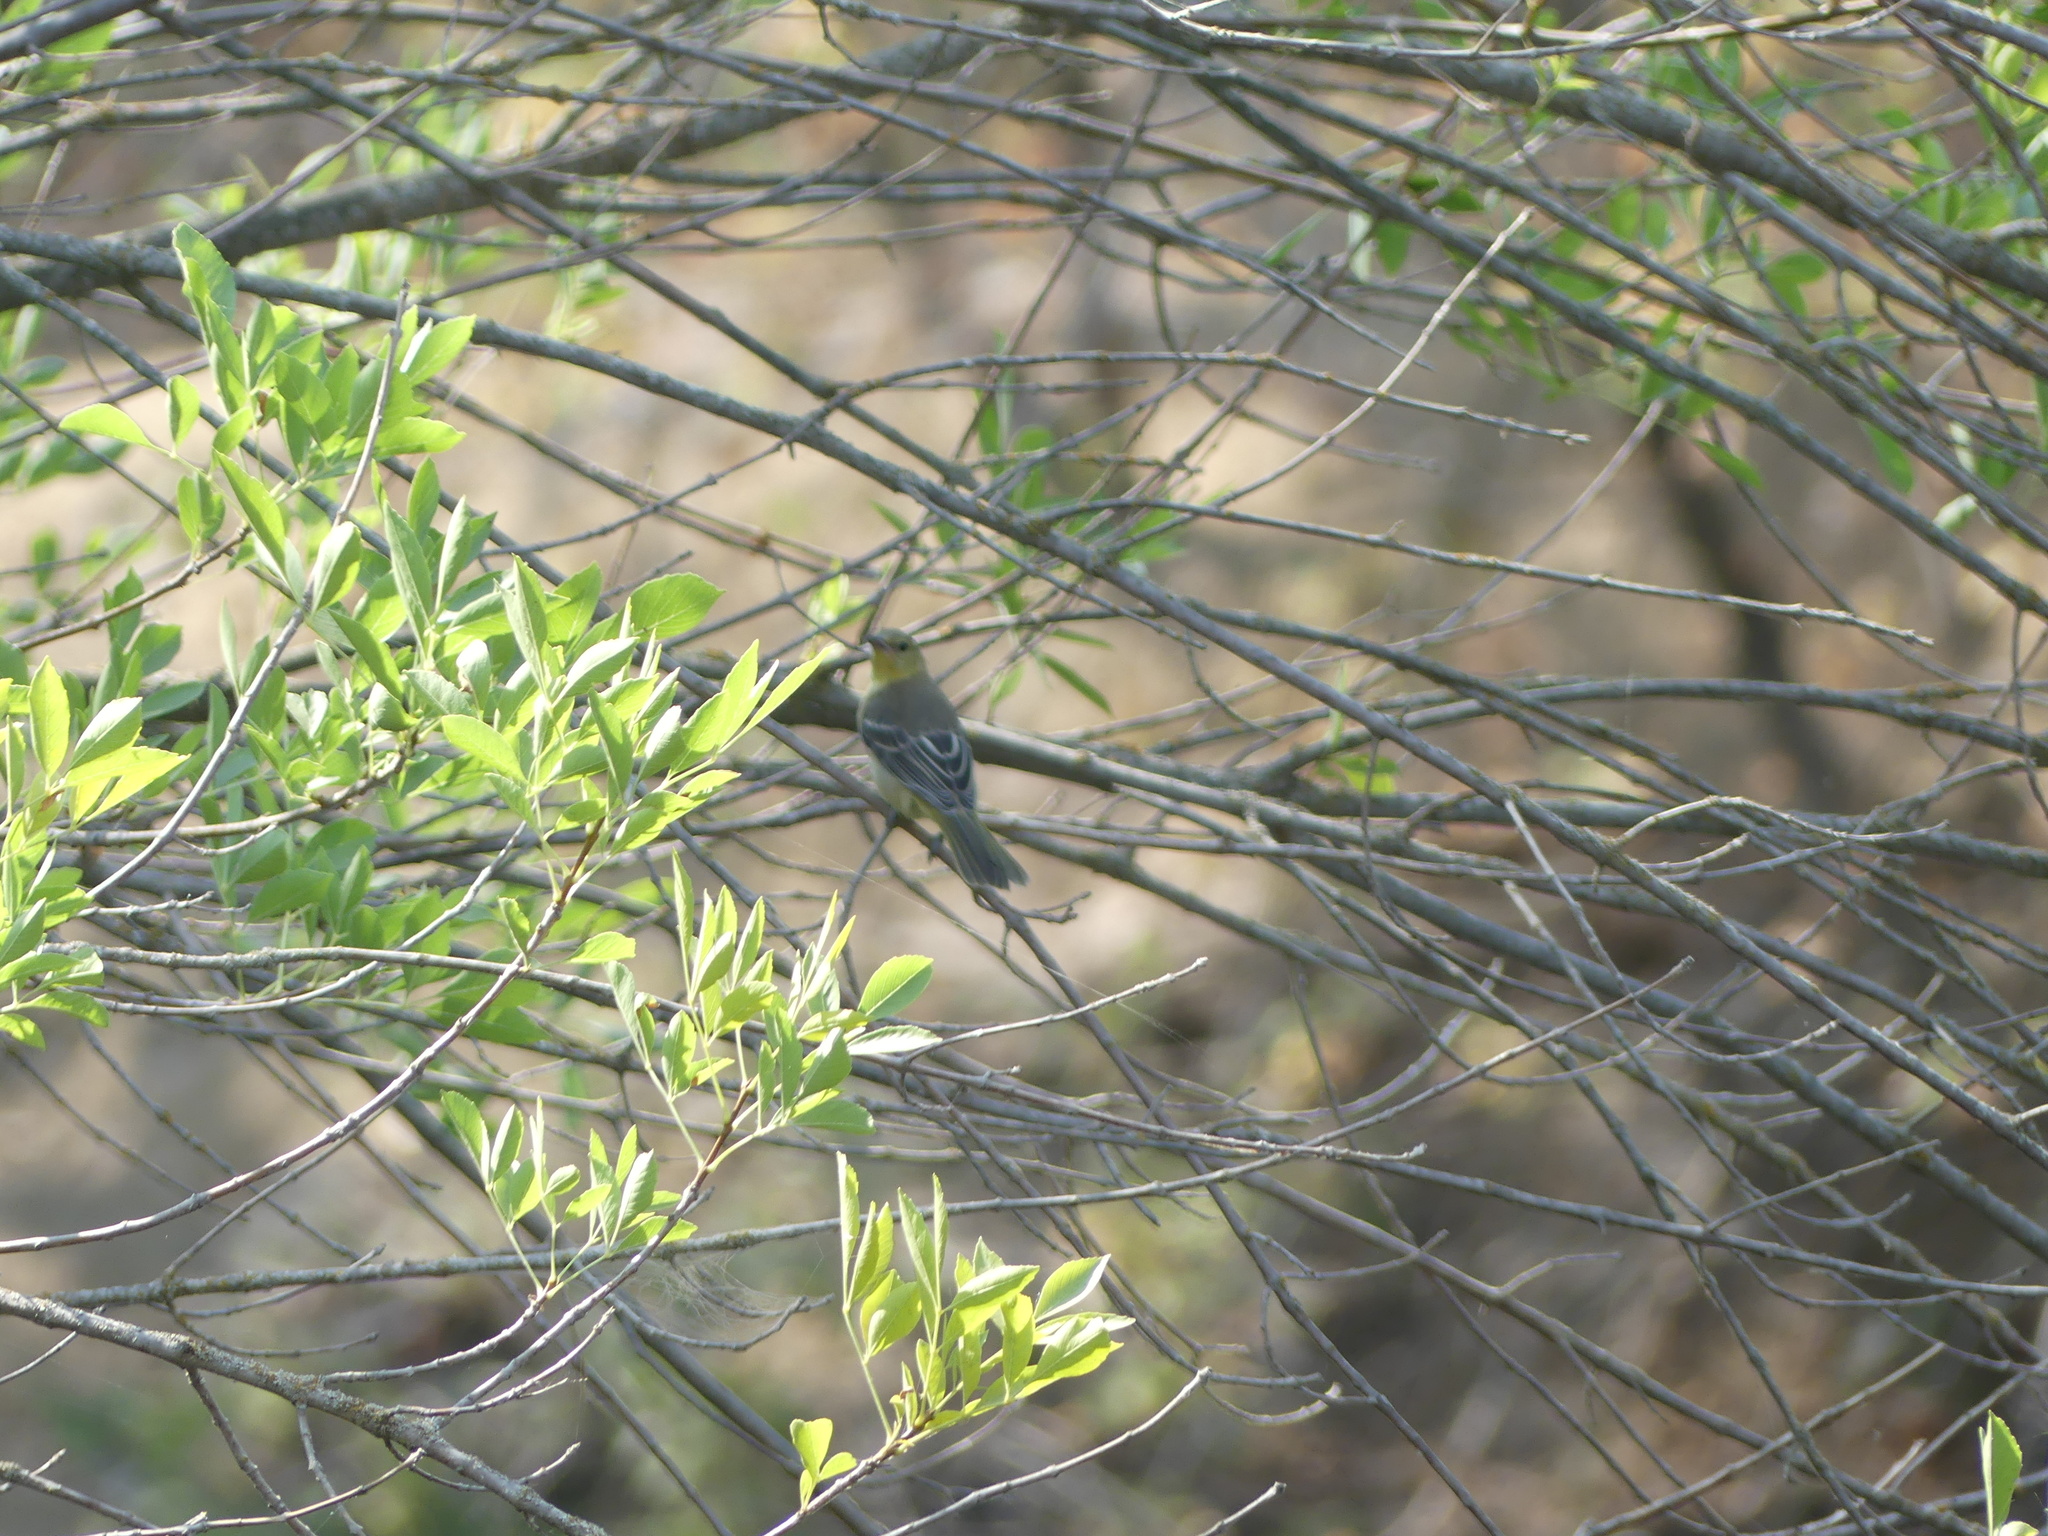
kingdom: Animalia
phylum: Chordata
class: Aves
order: Passeriformes
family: Icteridae
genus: Icterus
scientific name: Icterus cucullatus
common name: Hooded oriole
